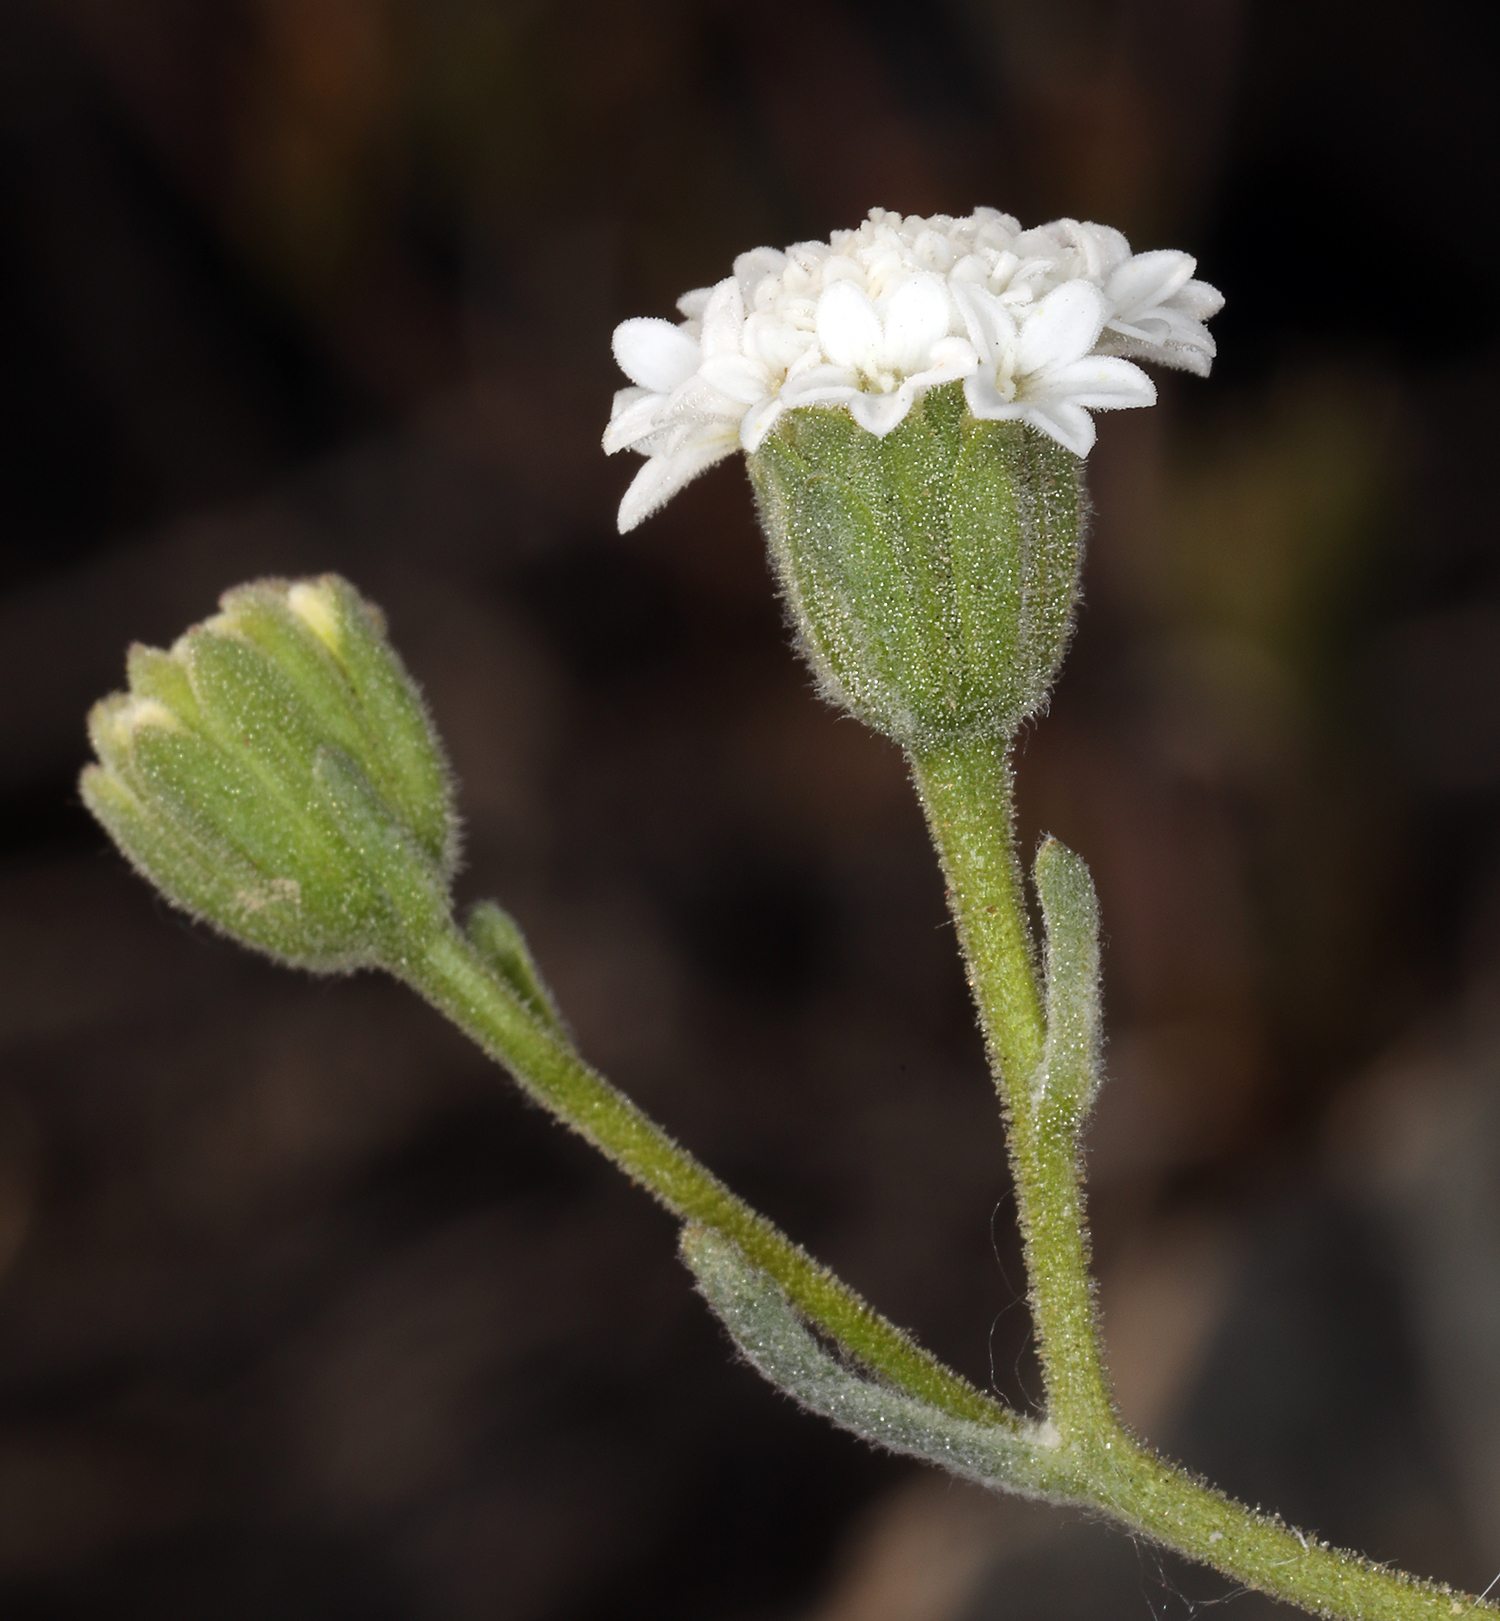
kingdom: Plantae
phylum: Tracheophyta
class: Magnoliopsida
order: Asterales
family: Asteraceae
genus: Chaenactis
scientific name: Chaenactis stevioides
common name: Desert pincushion
